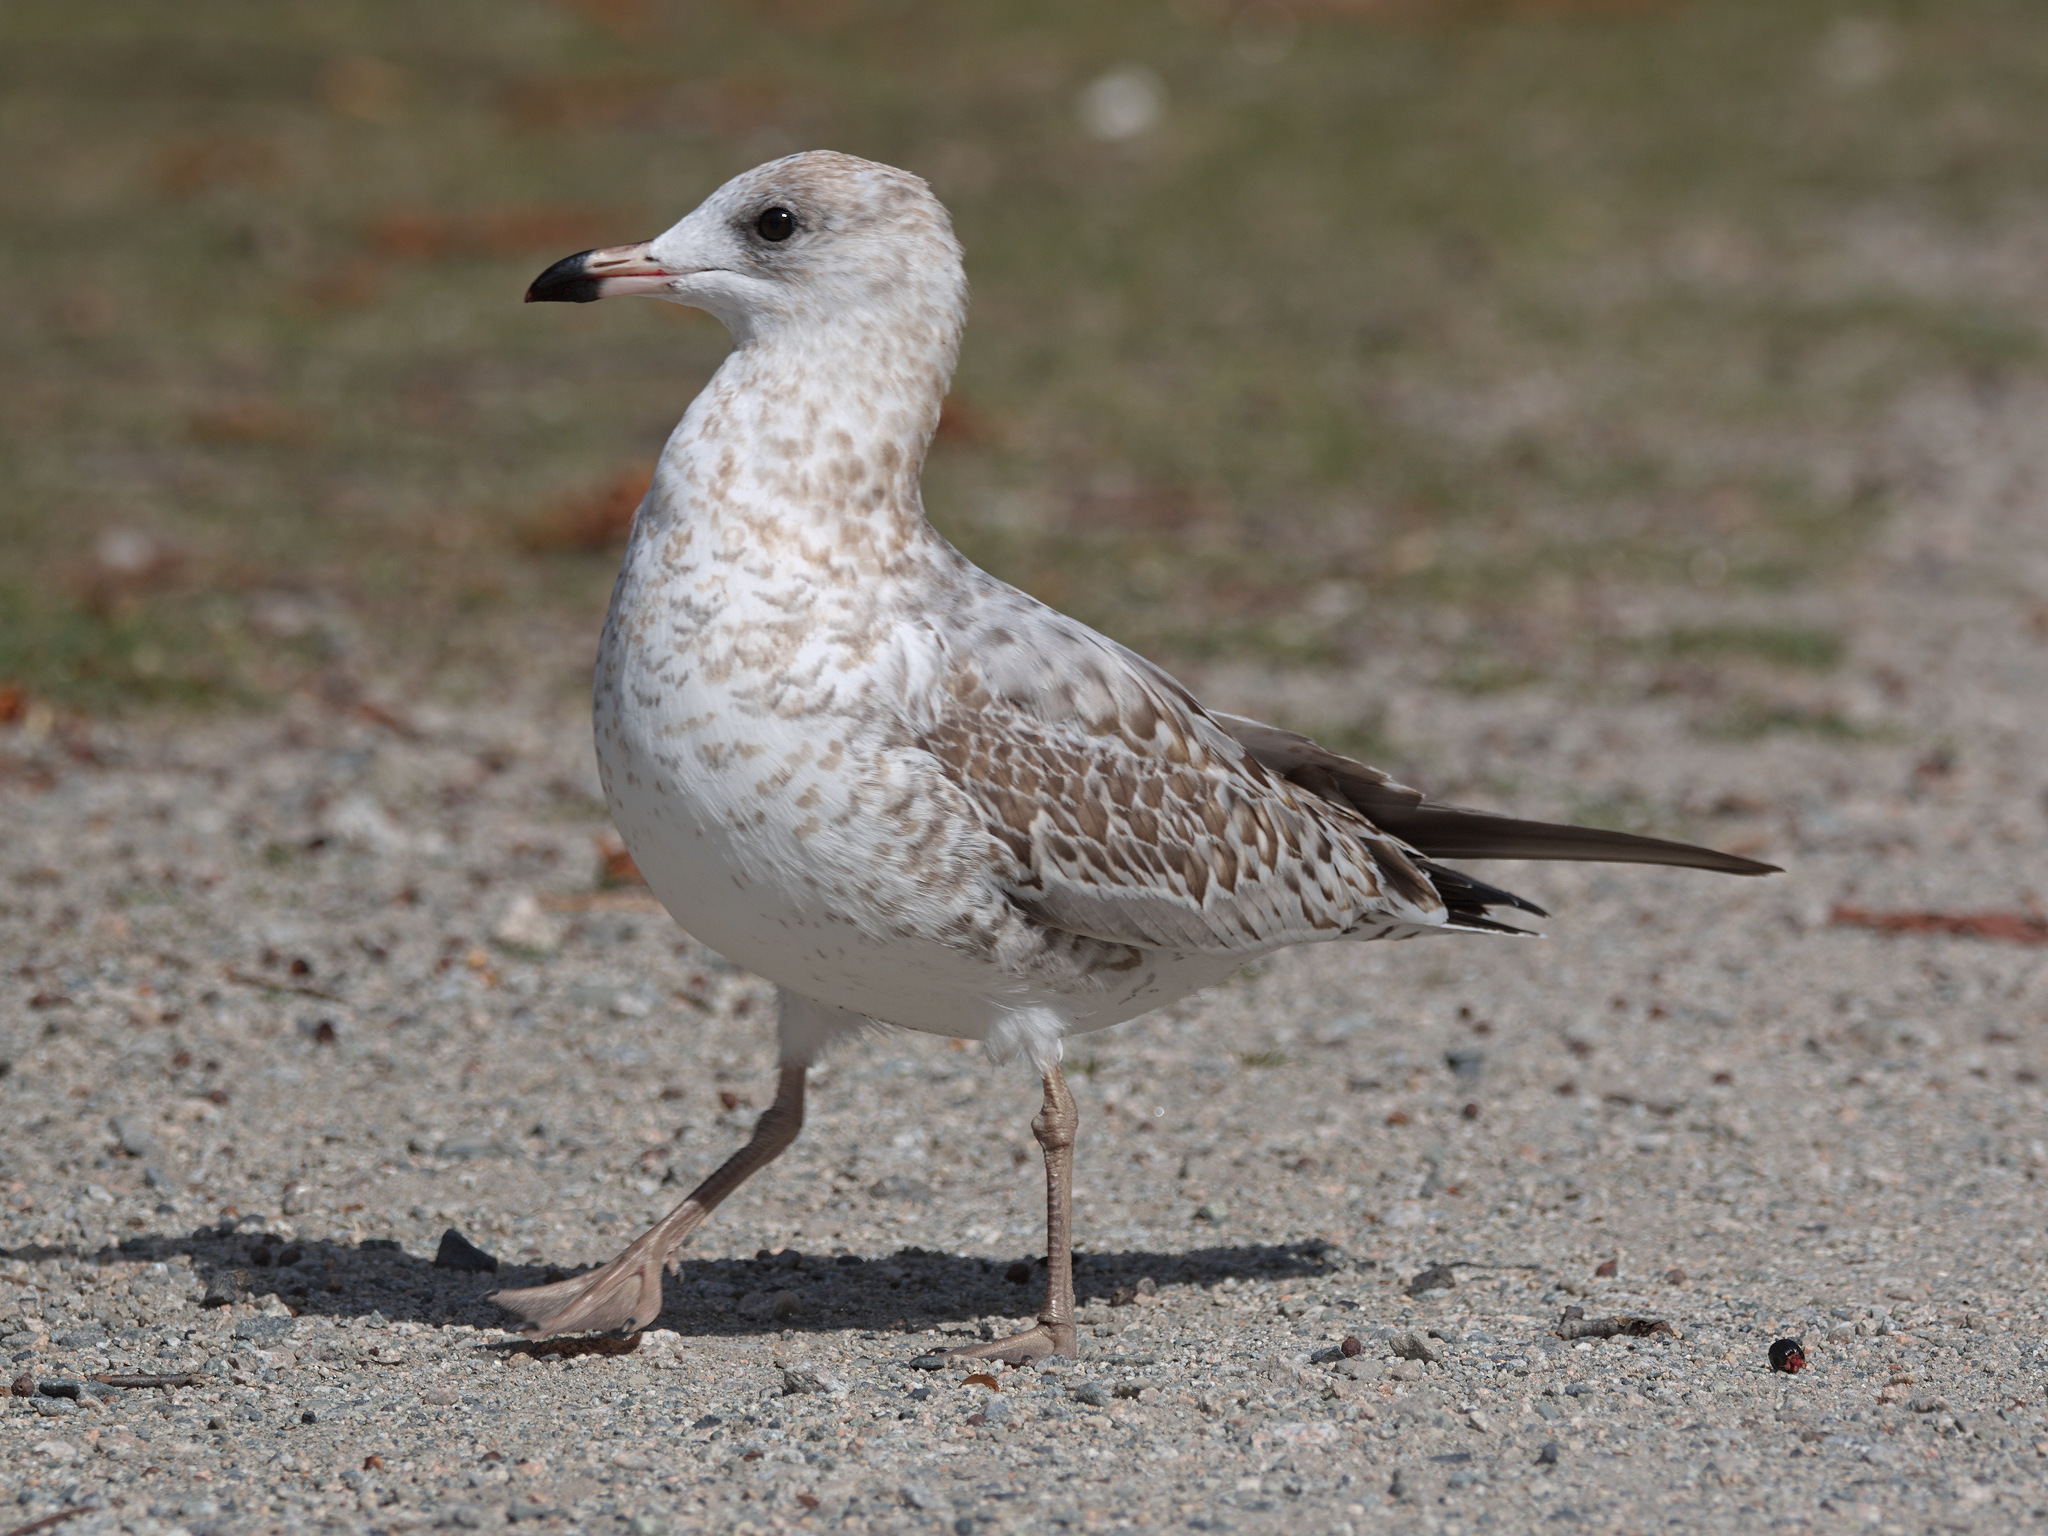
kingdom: Animalia
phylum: Chordata
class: Aves
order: Charadriiformes
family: Laridae
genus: Larus
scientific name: Larus delawarensis
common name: Ring-billed gull
